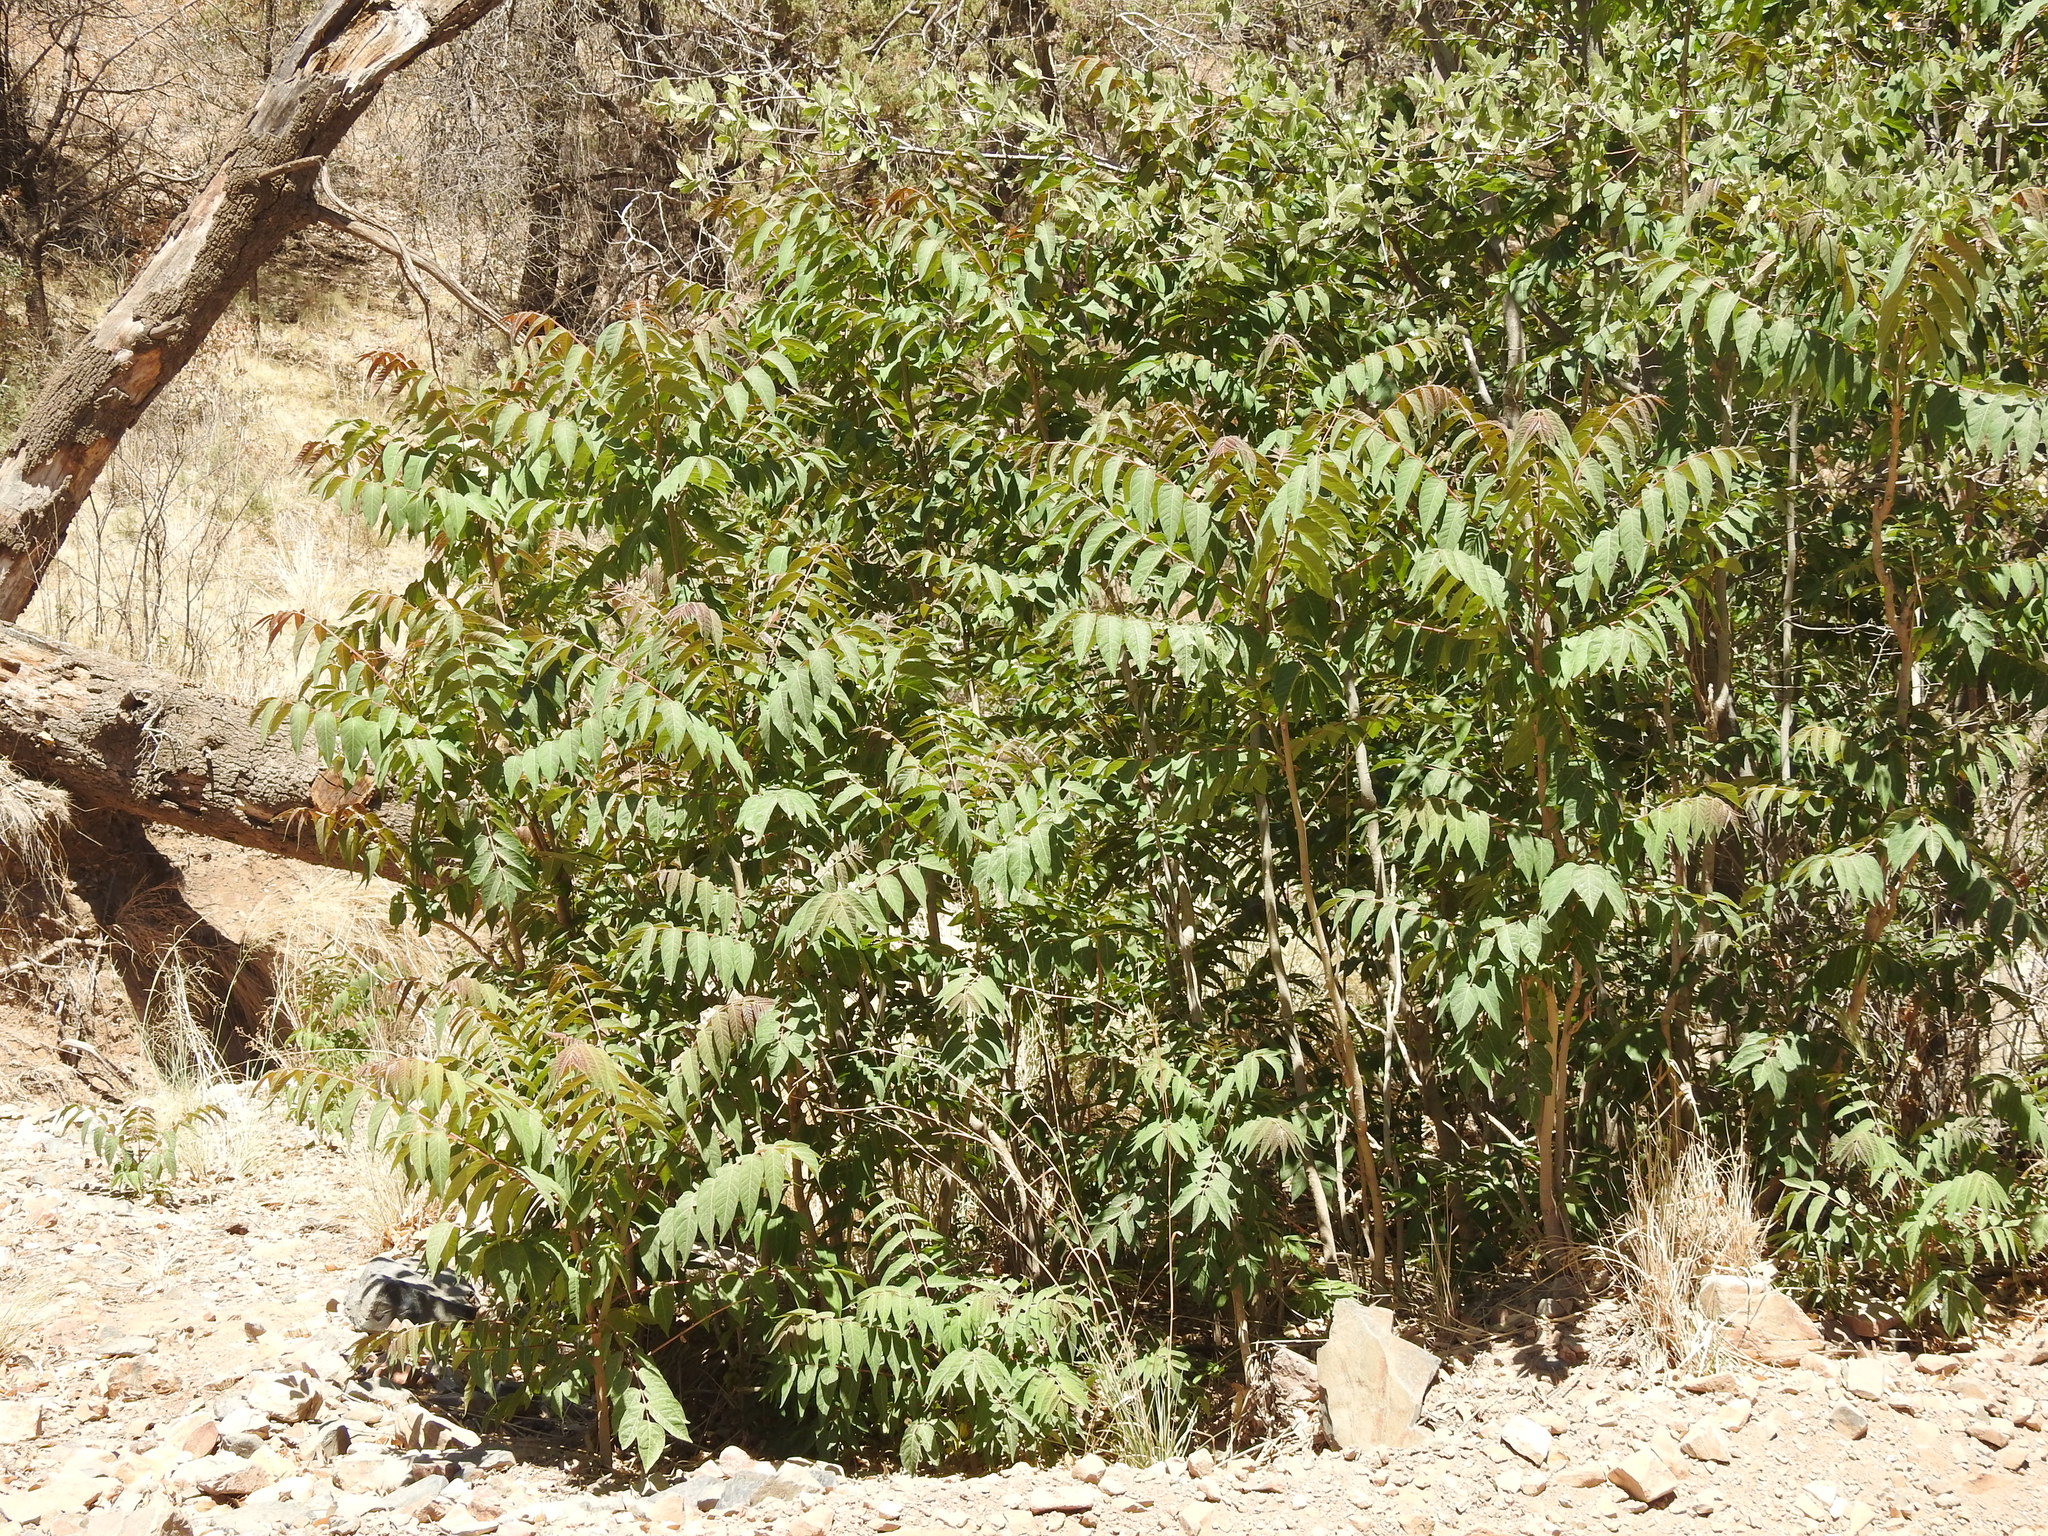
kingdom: Plantae
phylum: Tracheophyta
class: Magnoliopsida
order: Sapindales
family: Simaroubaceae
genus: Ailanthus
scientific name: Ailanthus altissima
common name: Tree-of-heaven
